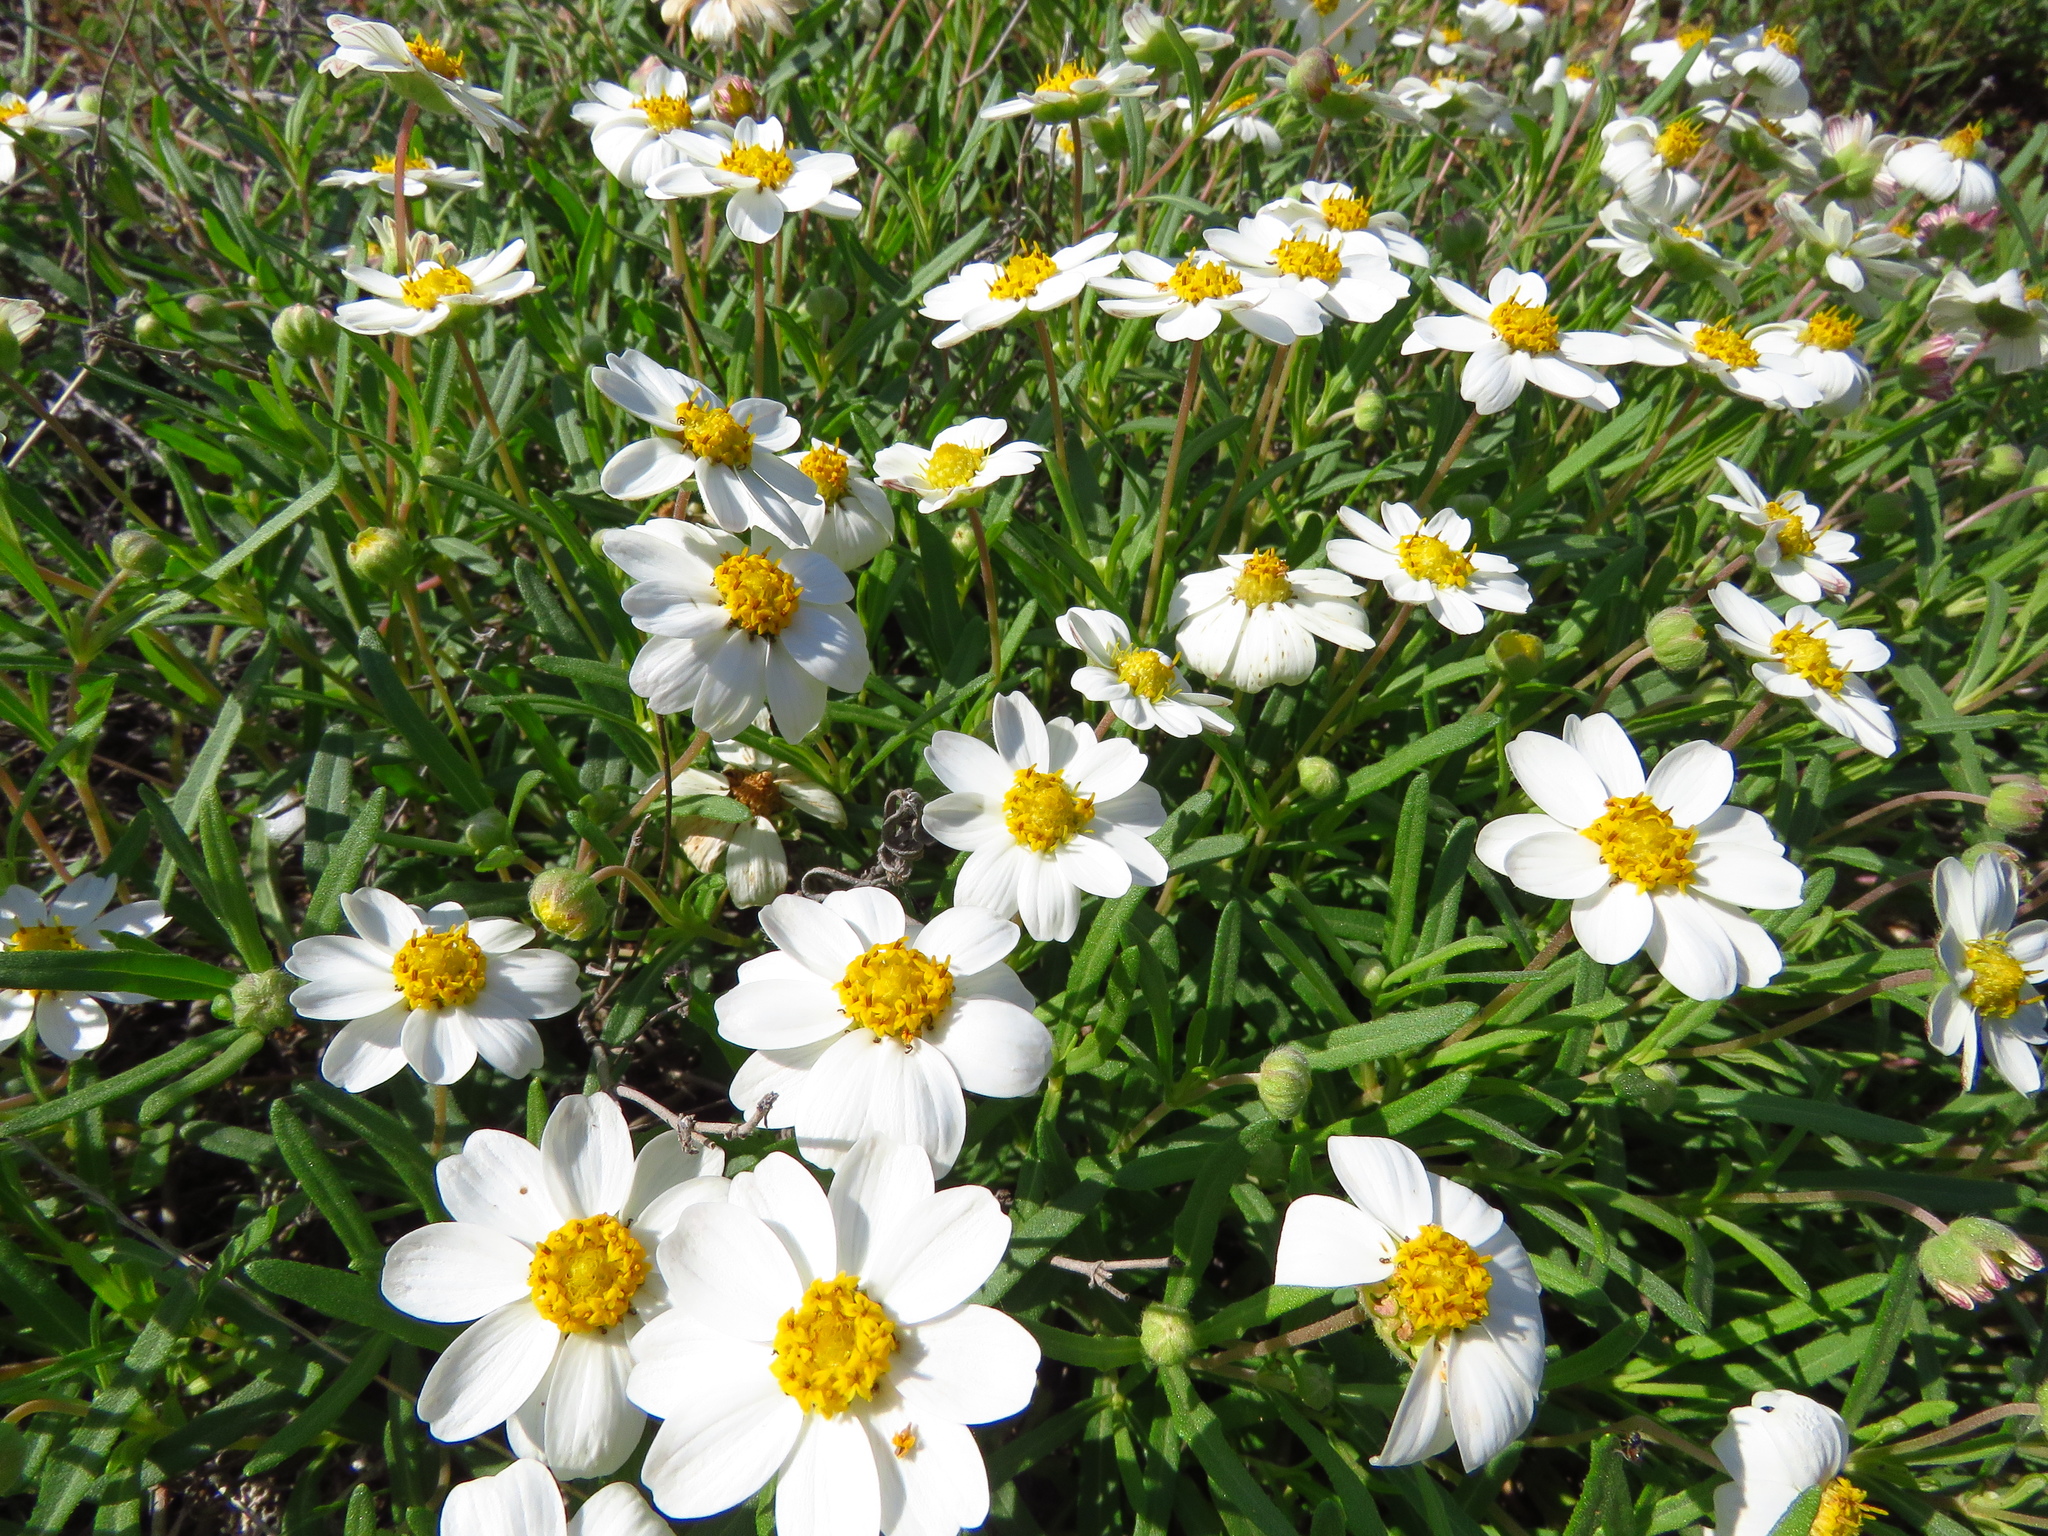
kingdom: Plantae
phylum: Tracheophyta
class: Magnoliopsida
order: Asterales
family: Asteraceae
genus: Melampodium
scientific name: Melampodium leucanthum
